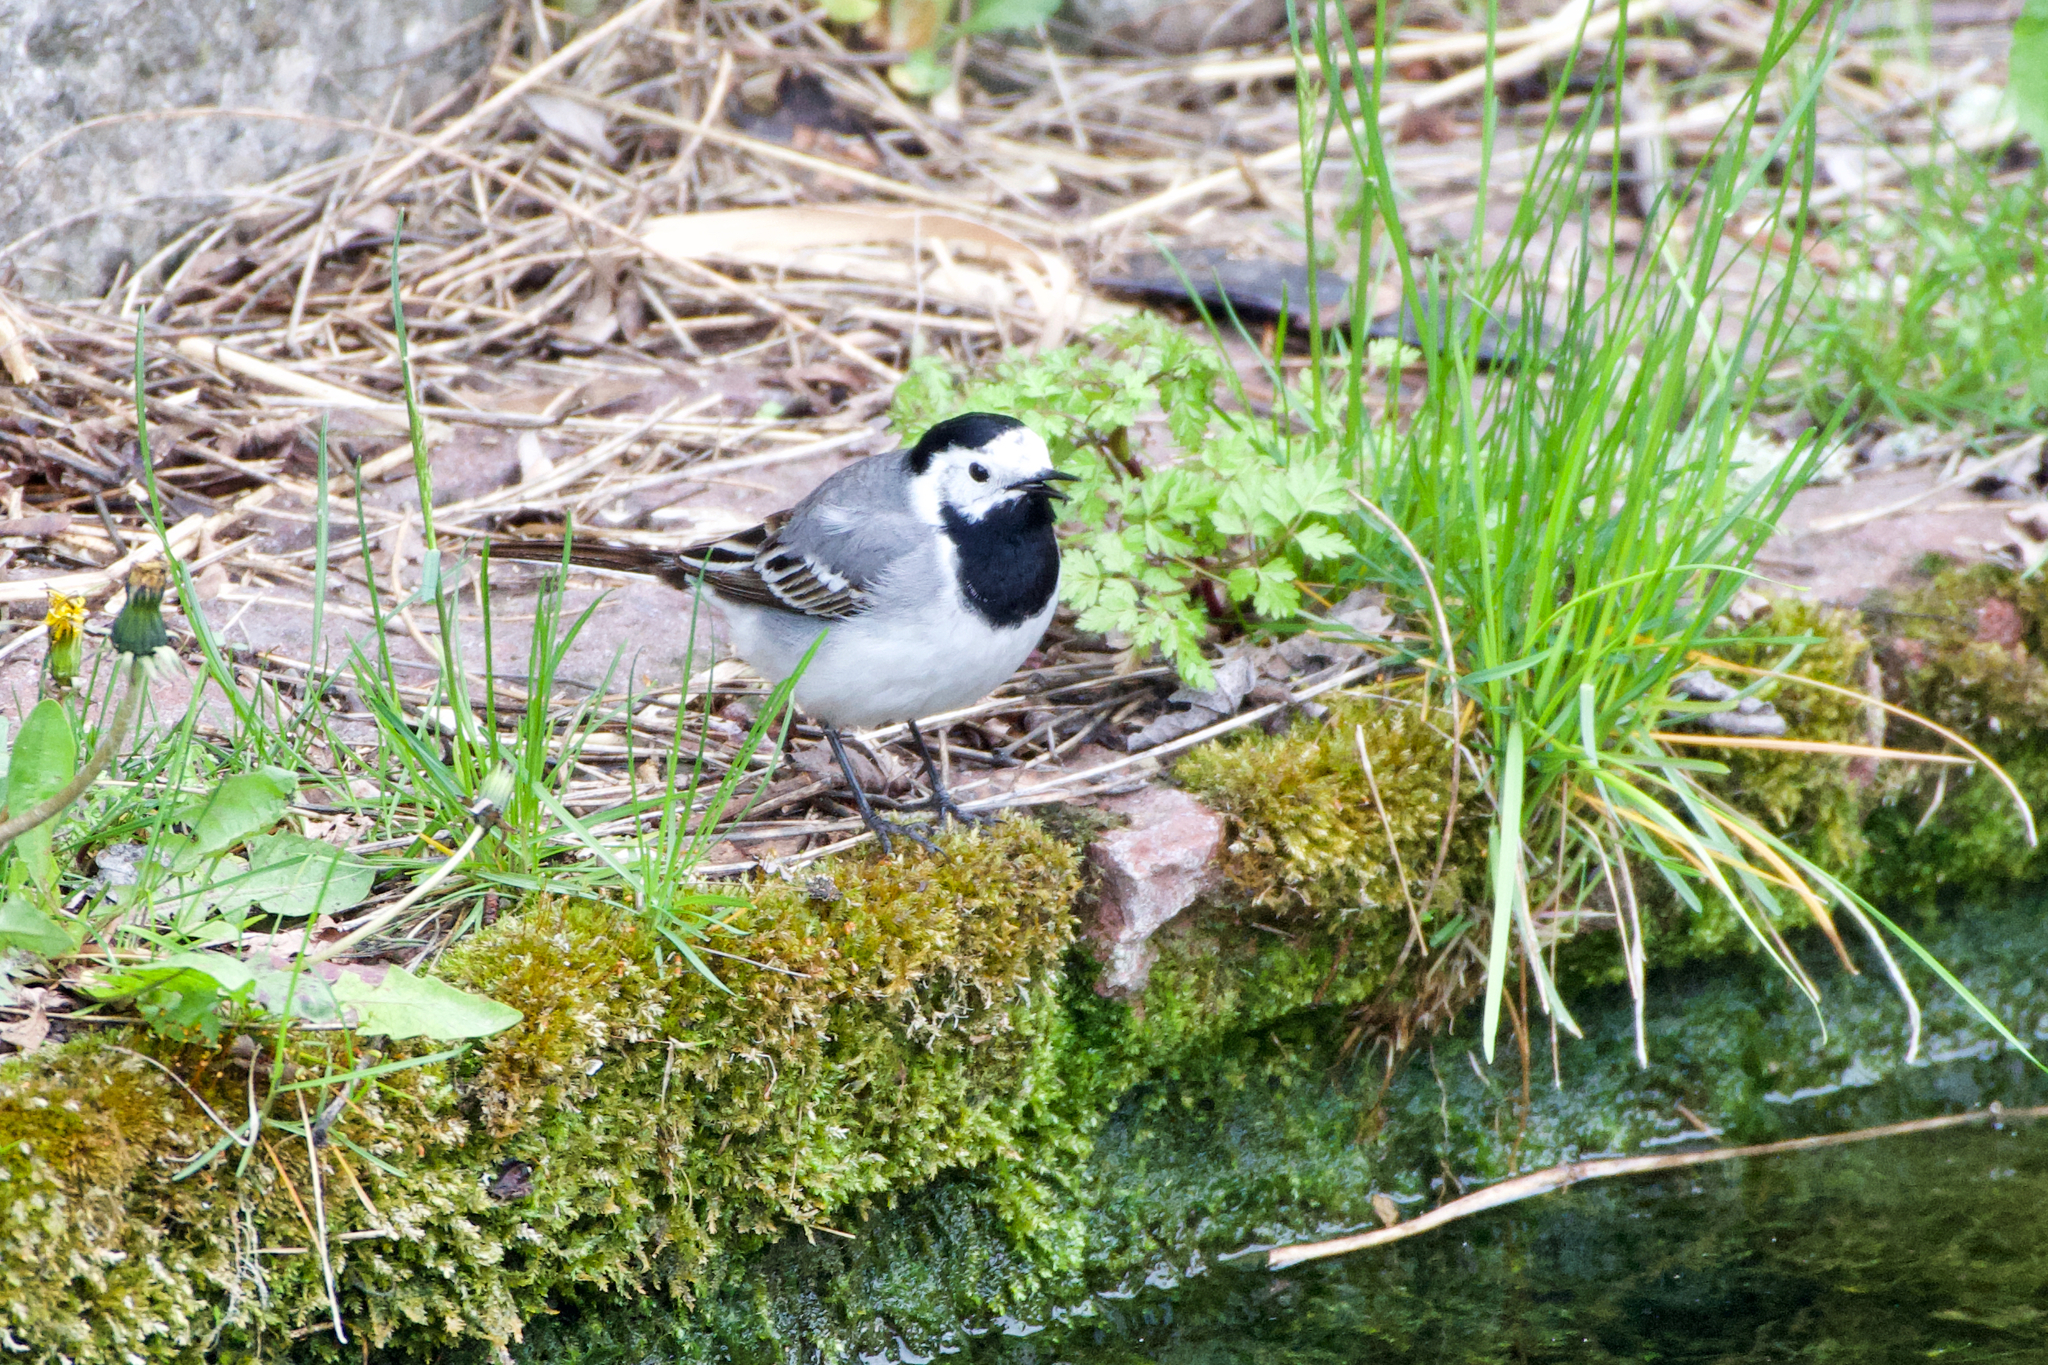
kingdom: Animalia
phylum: Chordata
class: Aves
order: Passeriformes
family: Motacillidae
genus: Motacilla
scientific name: Motacilla alba
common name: White wagtail
